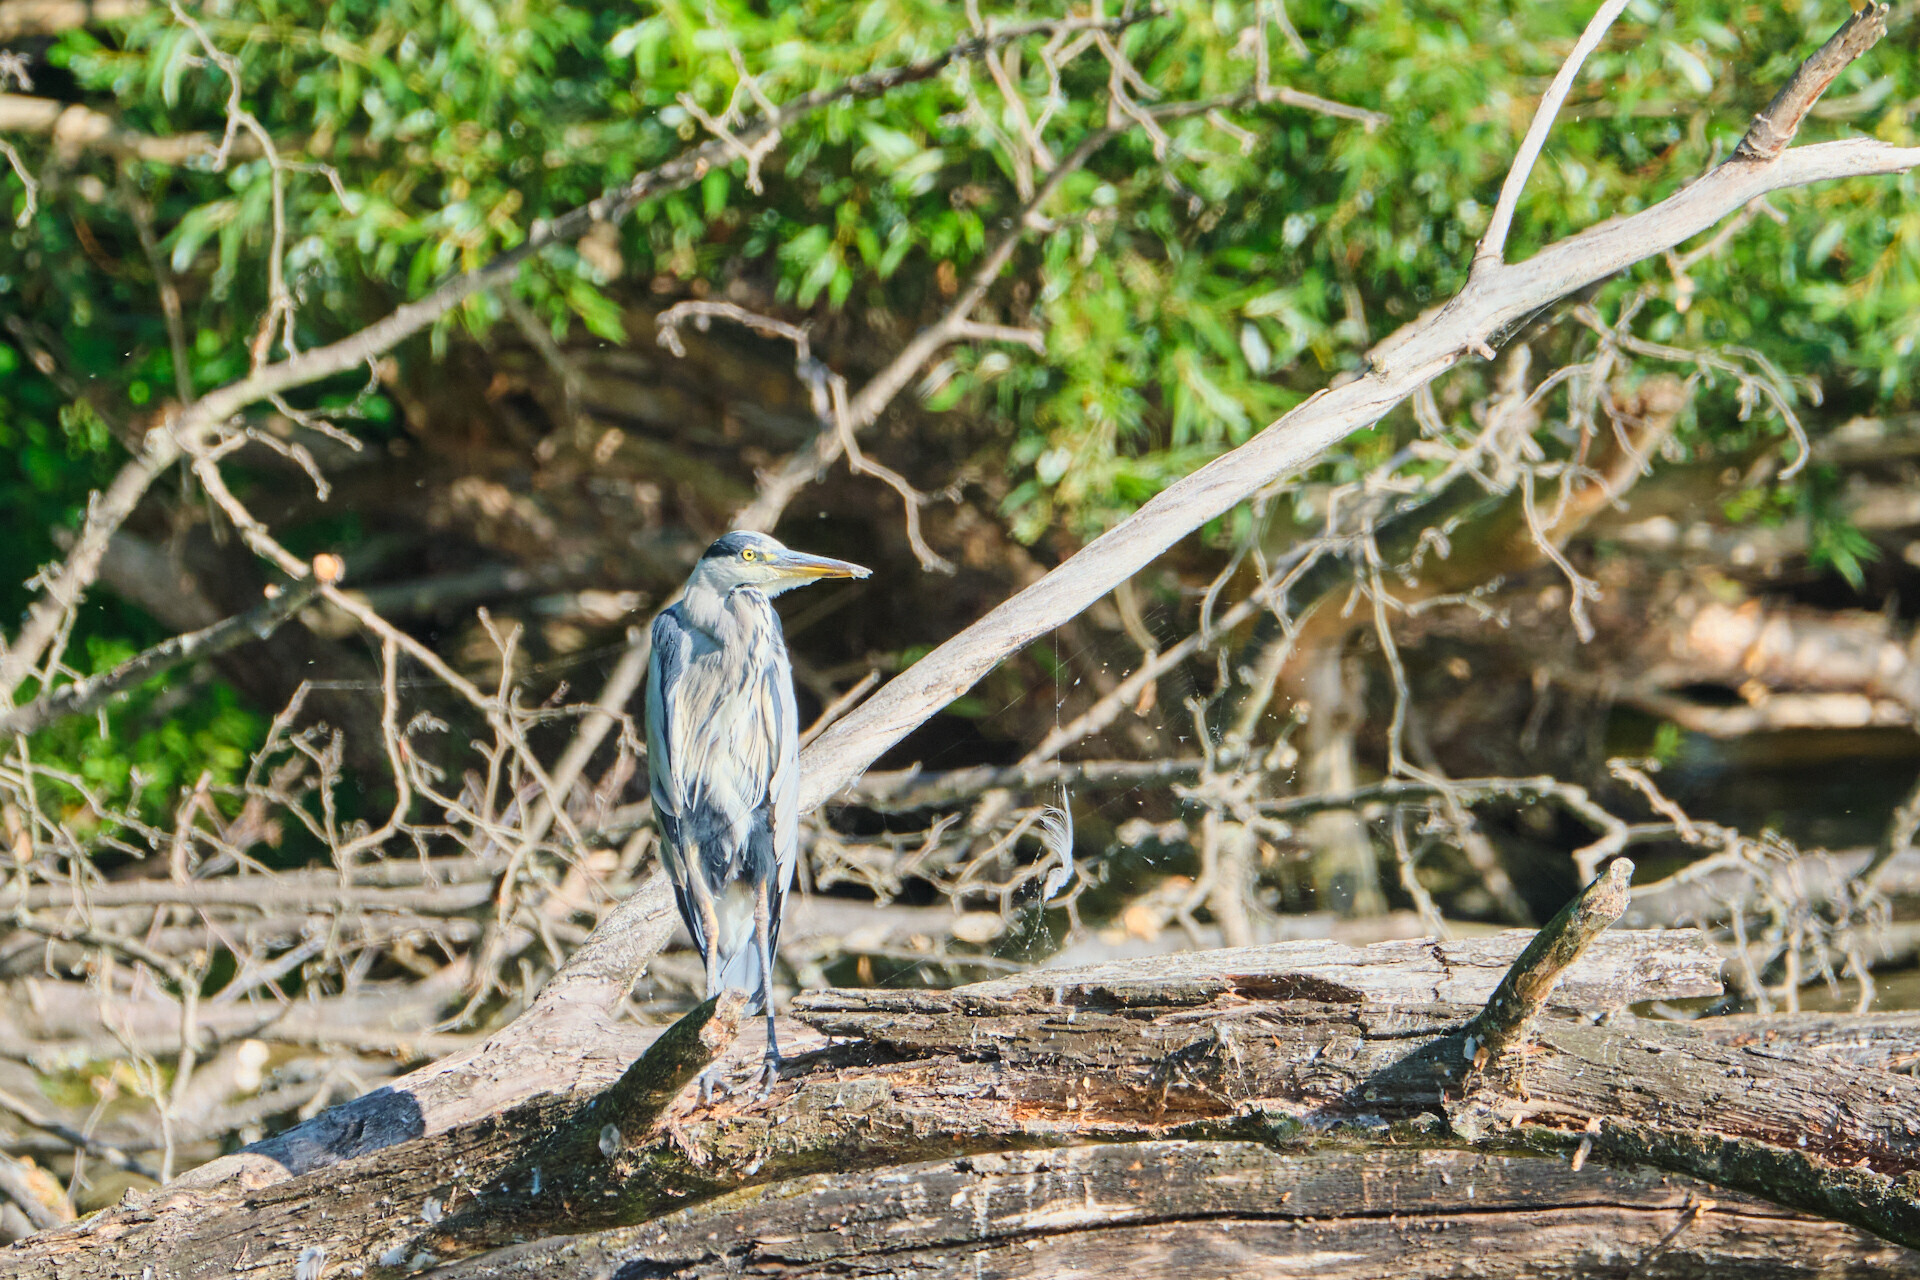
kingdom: Animalia
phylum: Chordata
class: Aves
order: Pelecaniformes
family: Ardeidae
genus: Ardea
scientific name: Ardea cinerea
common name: Grey heron
